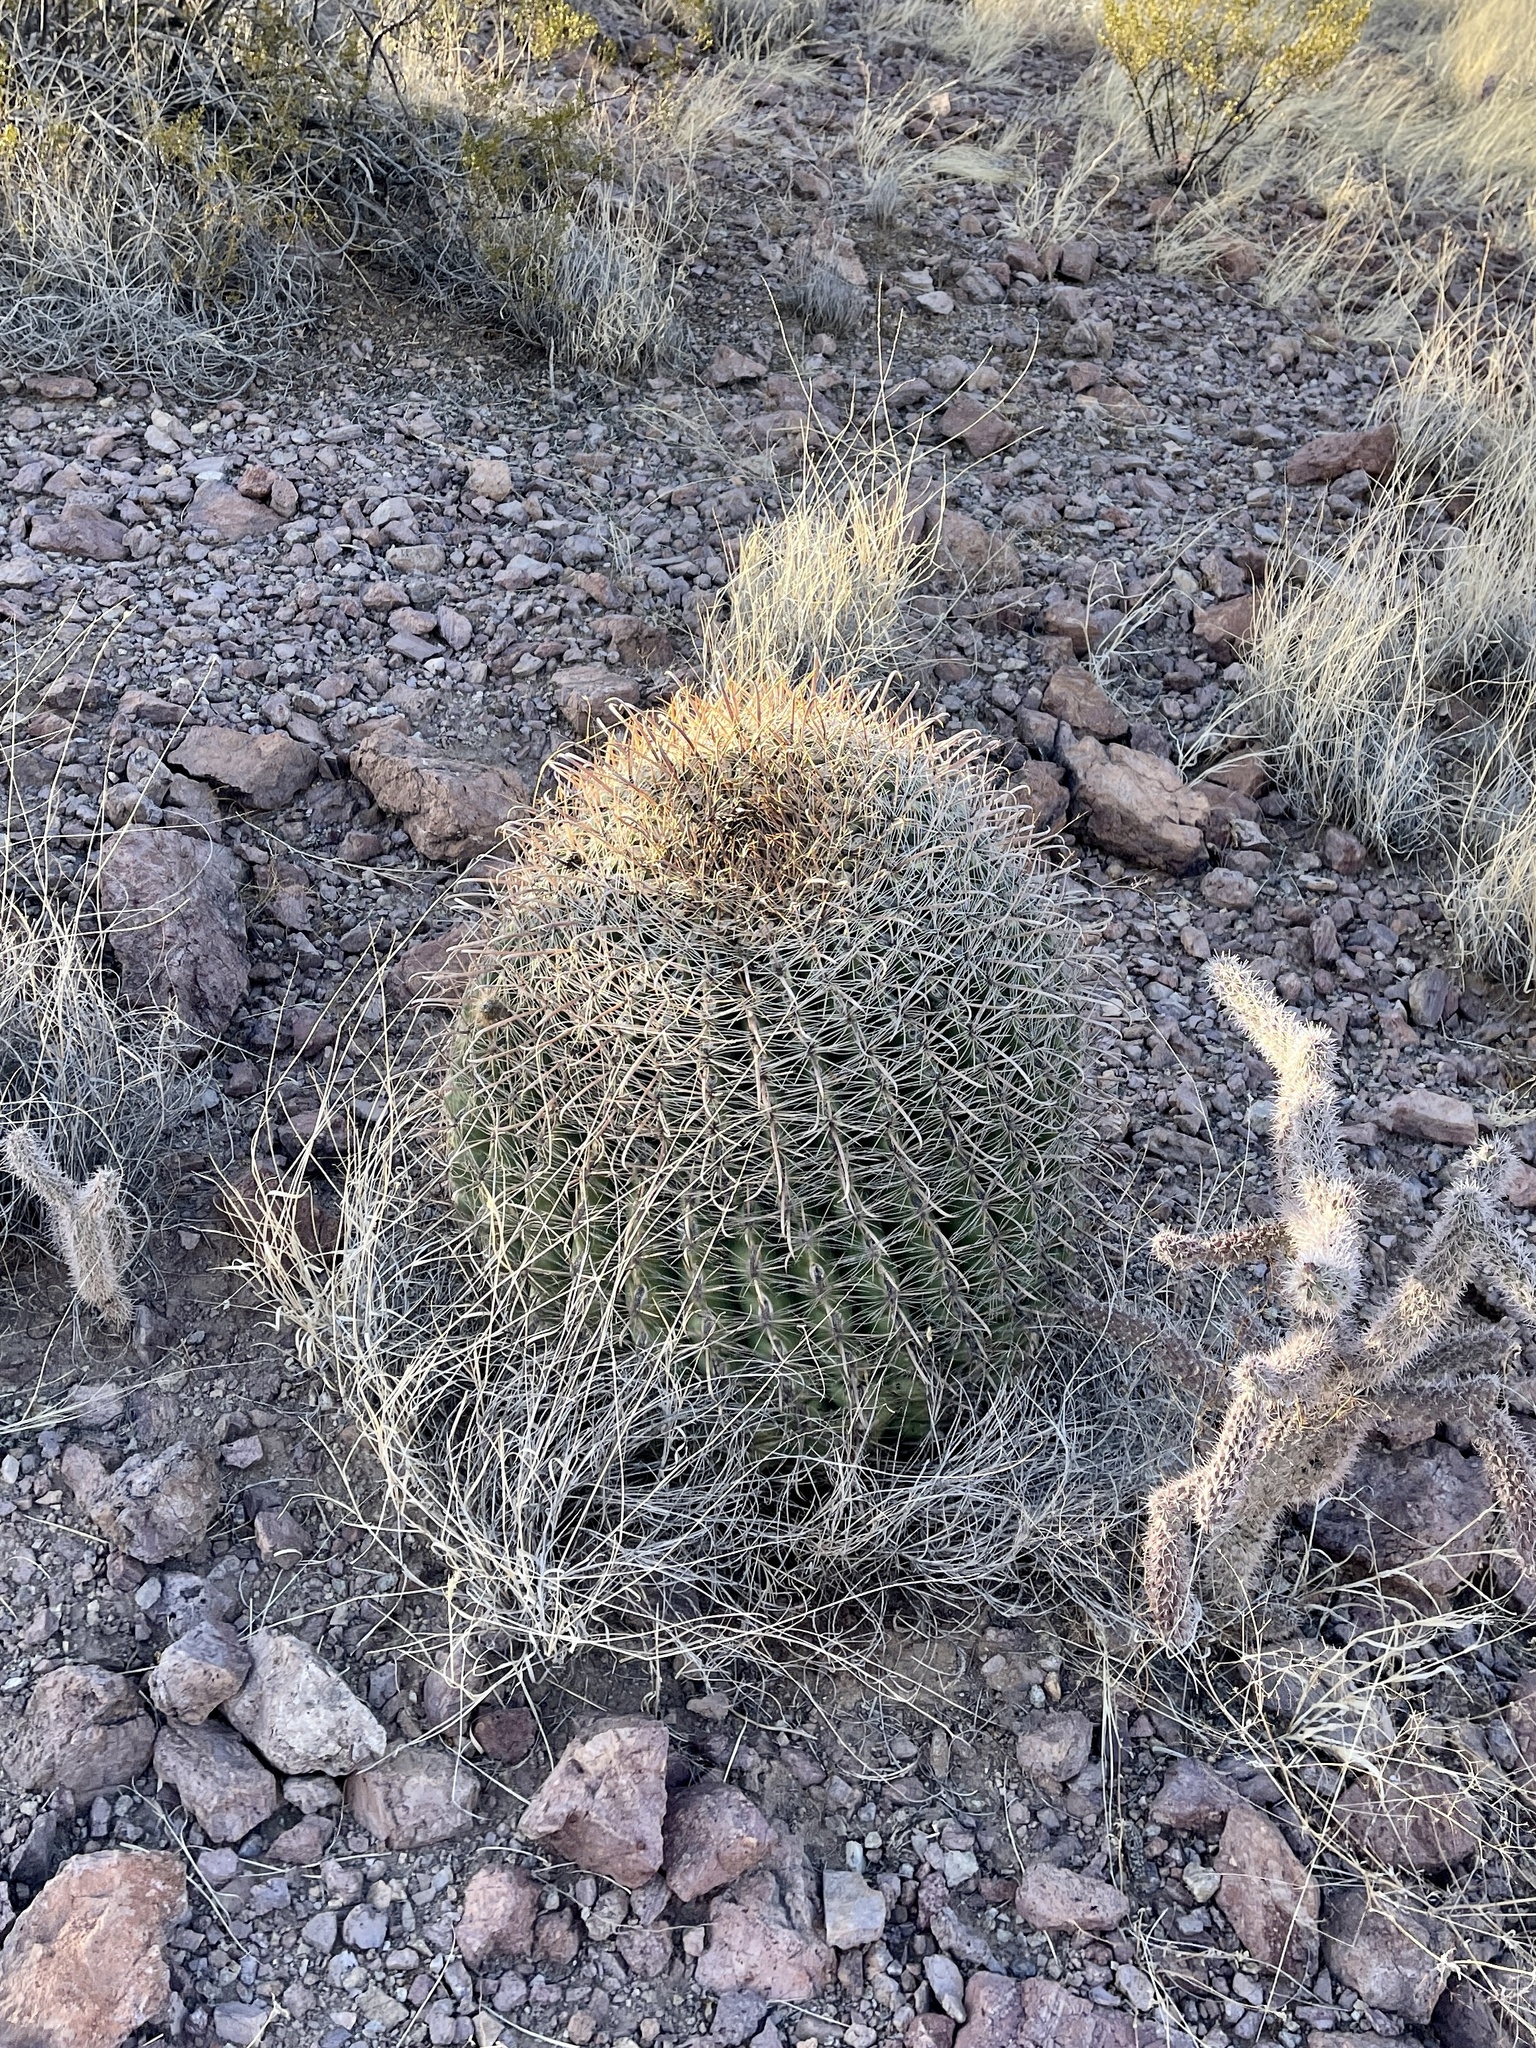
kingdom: Plantae
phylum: Tracheophyta
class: Magnoliopsida
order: Caryophyllales
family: Cactaceae
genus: Ferocactus
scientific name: Ferocactus wislizeni
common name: Candy barrel cactus
